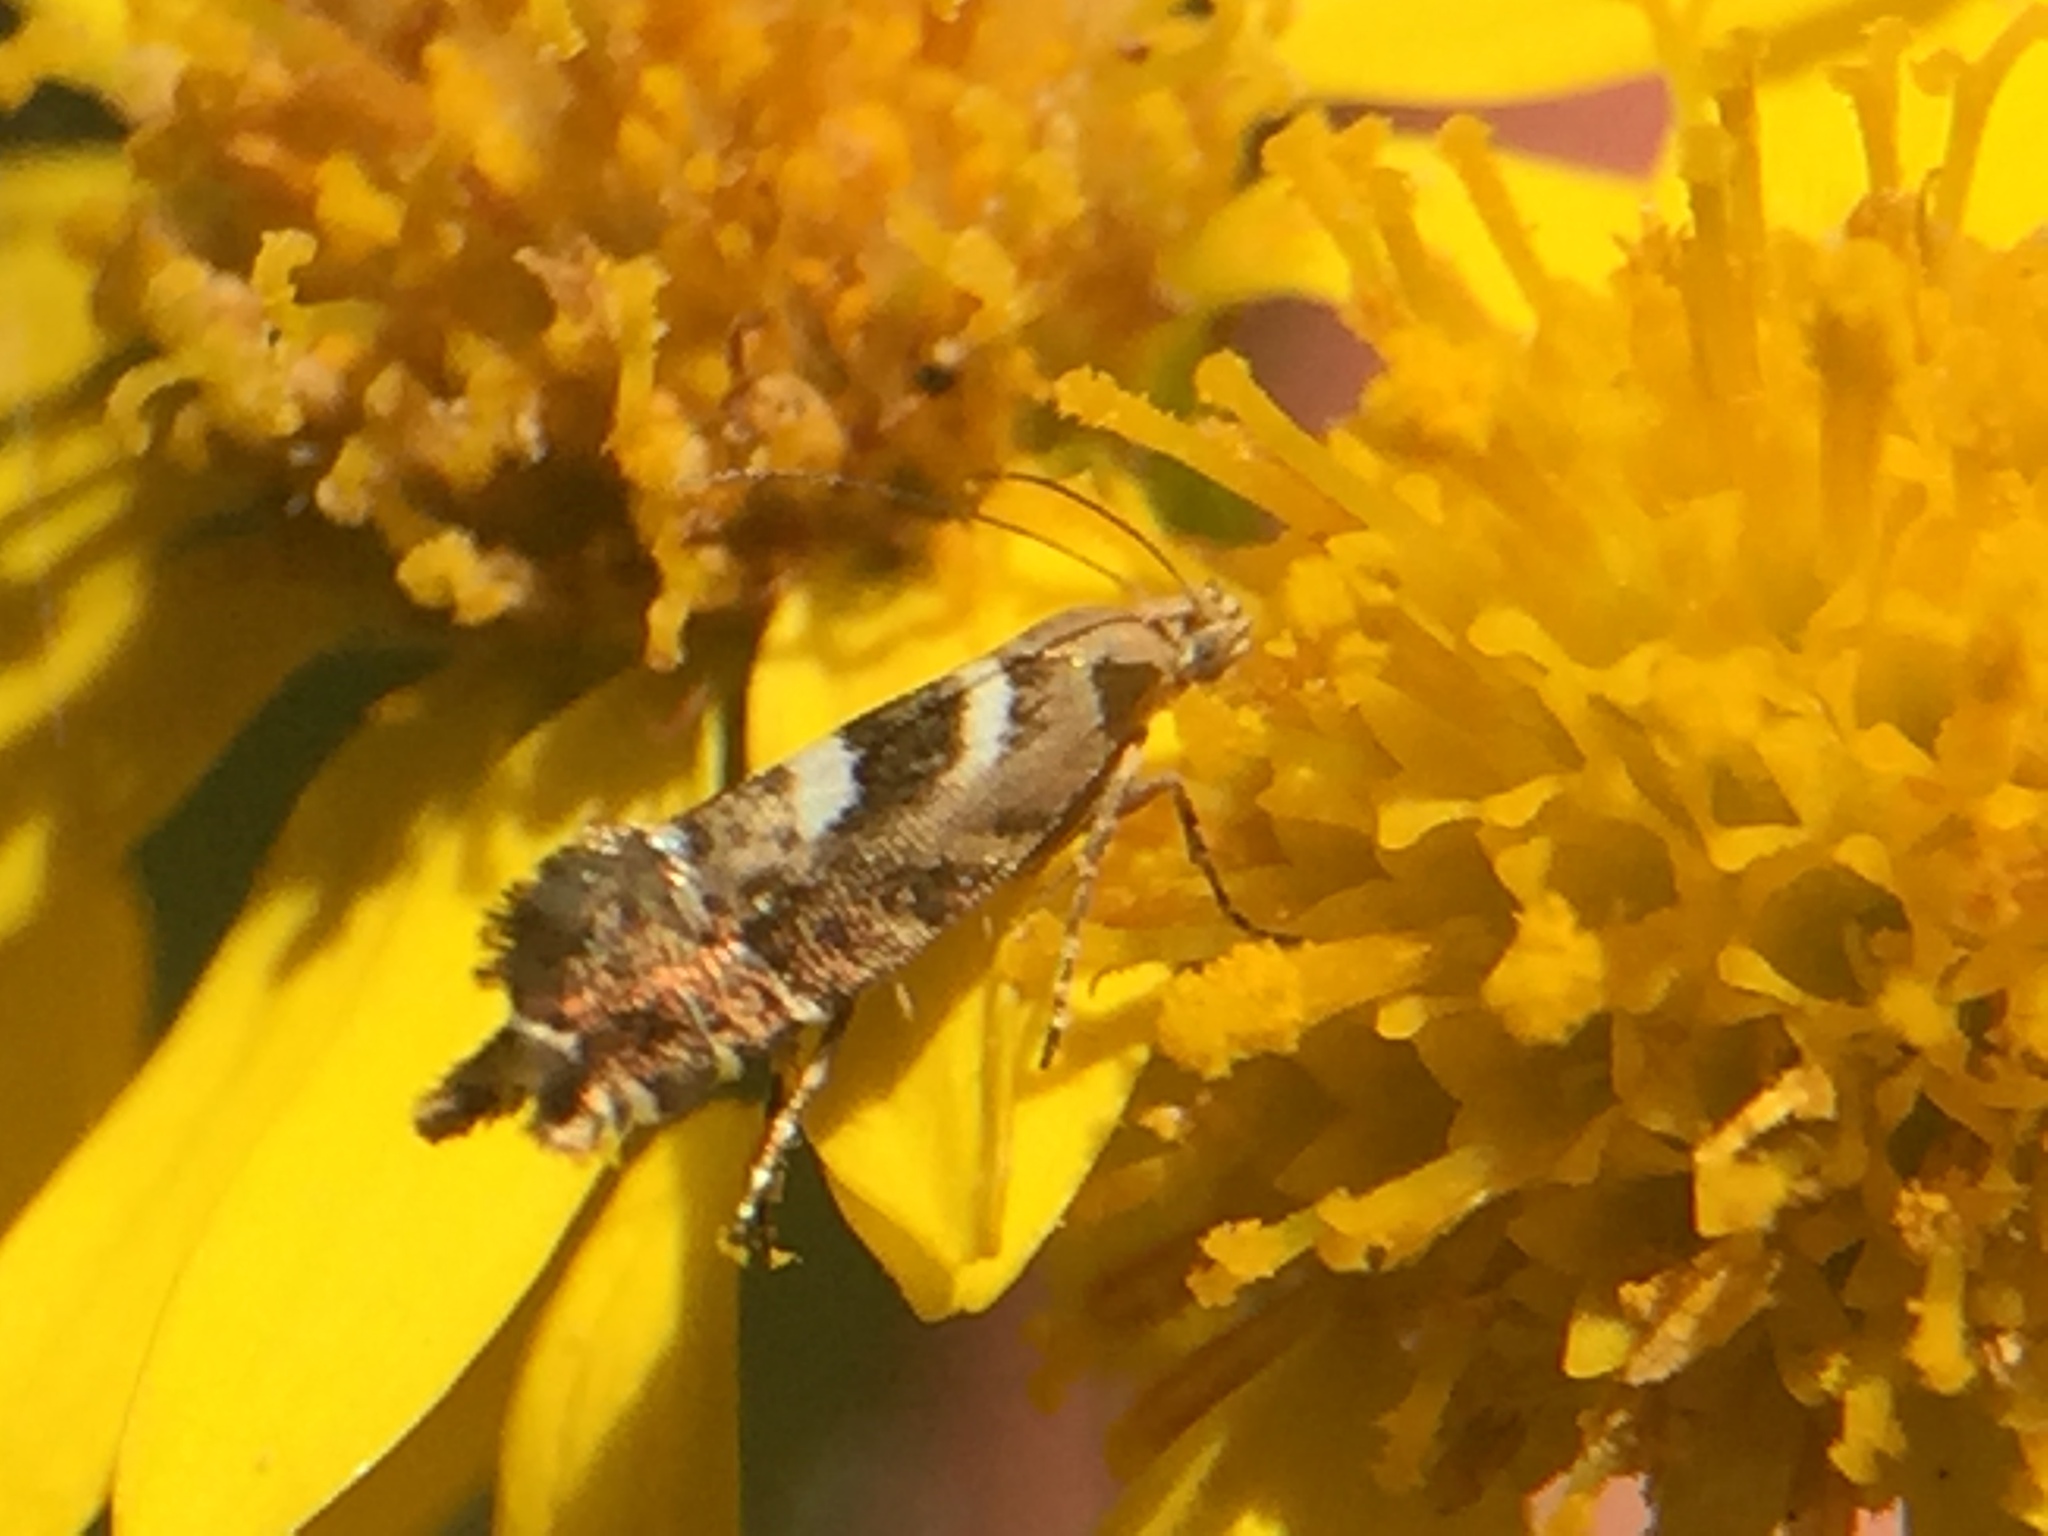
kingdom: Animalia
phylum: Arthropoda
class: Insecta
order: Lepidoptera
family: Glyphipterigidae
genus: Glyphipterix
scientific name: Glyphipterix asteronota
